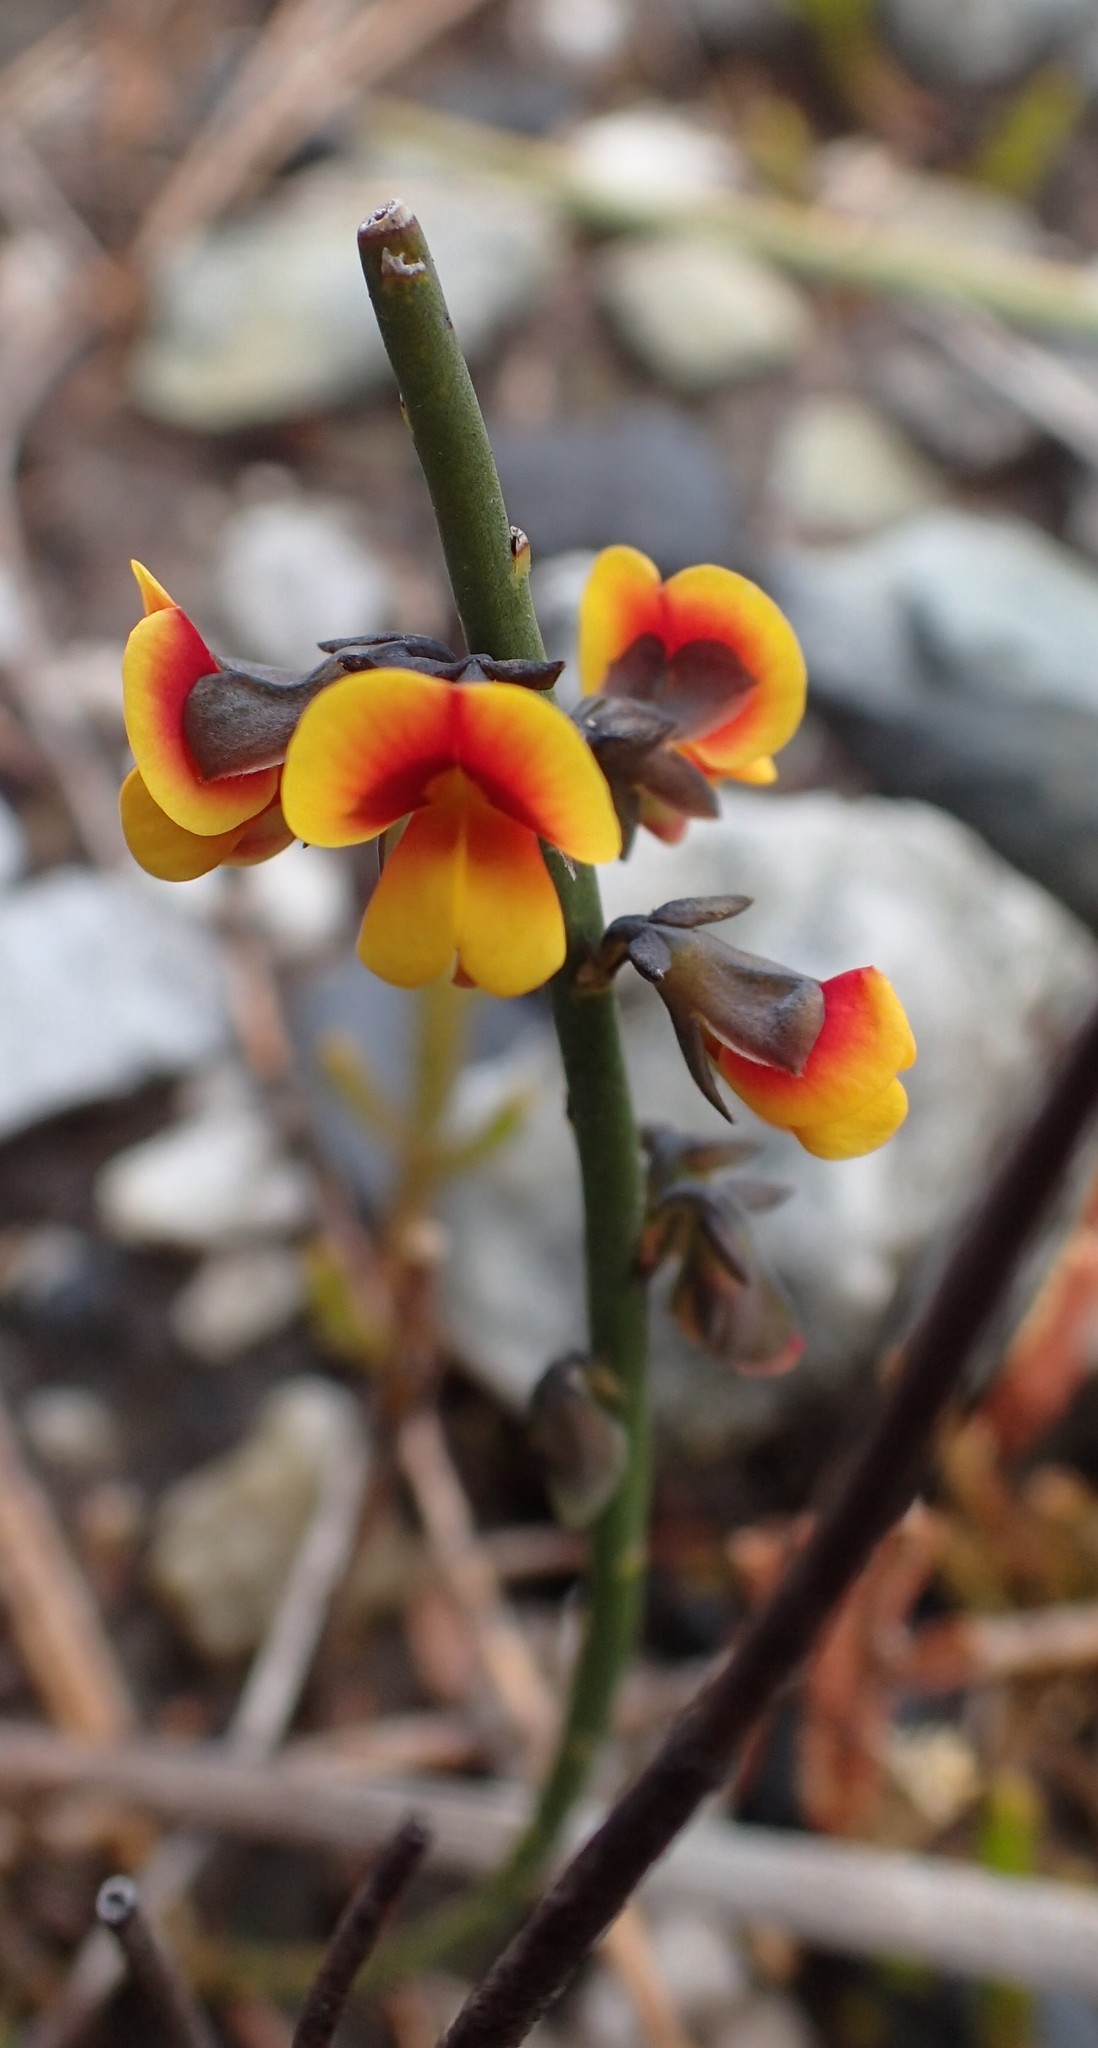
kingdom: Plantae
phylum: Tracheophyta
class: Magnoliopsida
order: Fabales
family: Fabaceae
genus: Sphaerolobium
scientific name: Sphaerolobium minus
